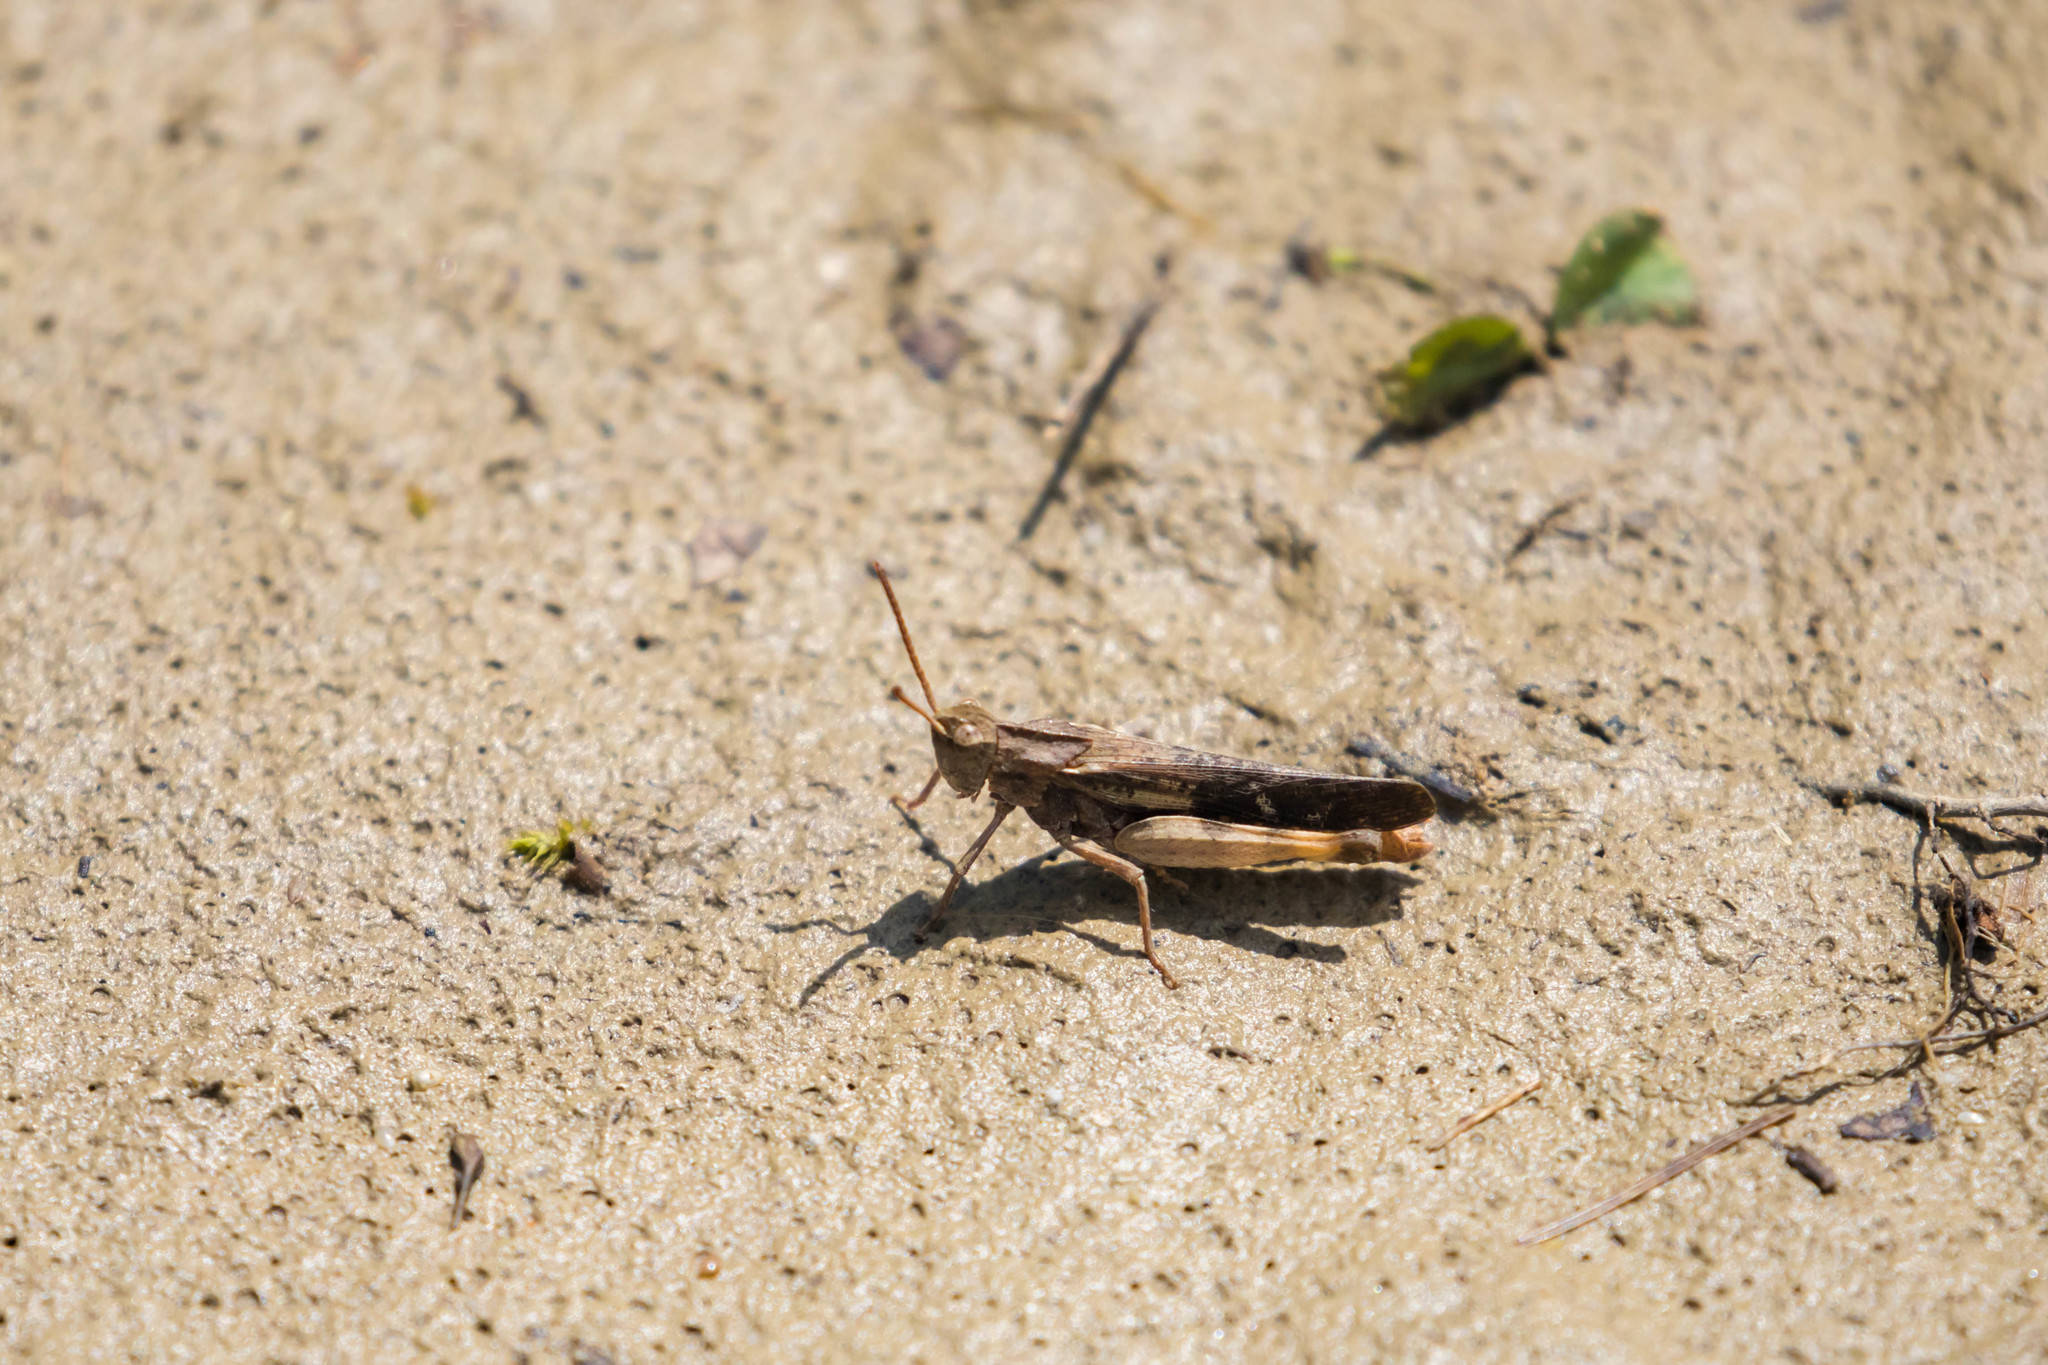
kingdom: Animalia
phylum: Arthropoda
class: Insecta
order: Orthoptera
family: Acrididae
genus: Chortophaga
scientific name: Chortophaga viridifasciata
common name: Green-striped grasshopper
